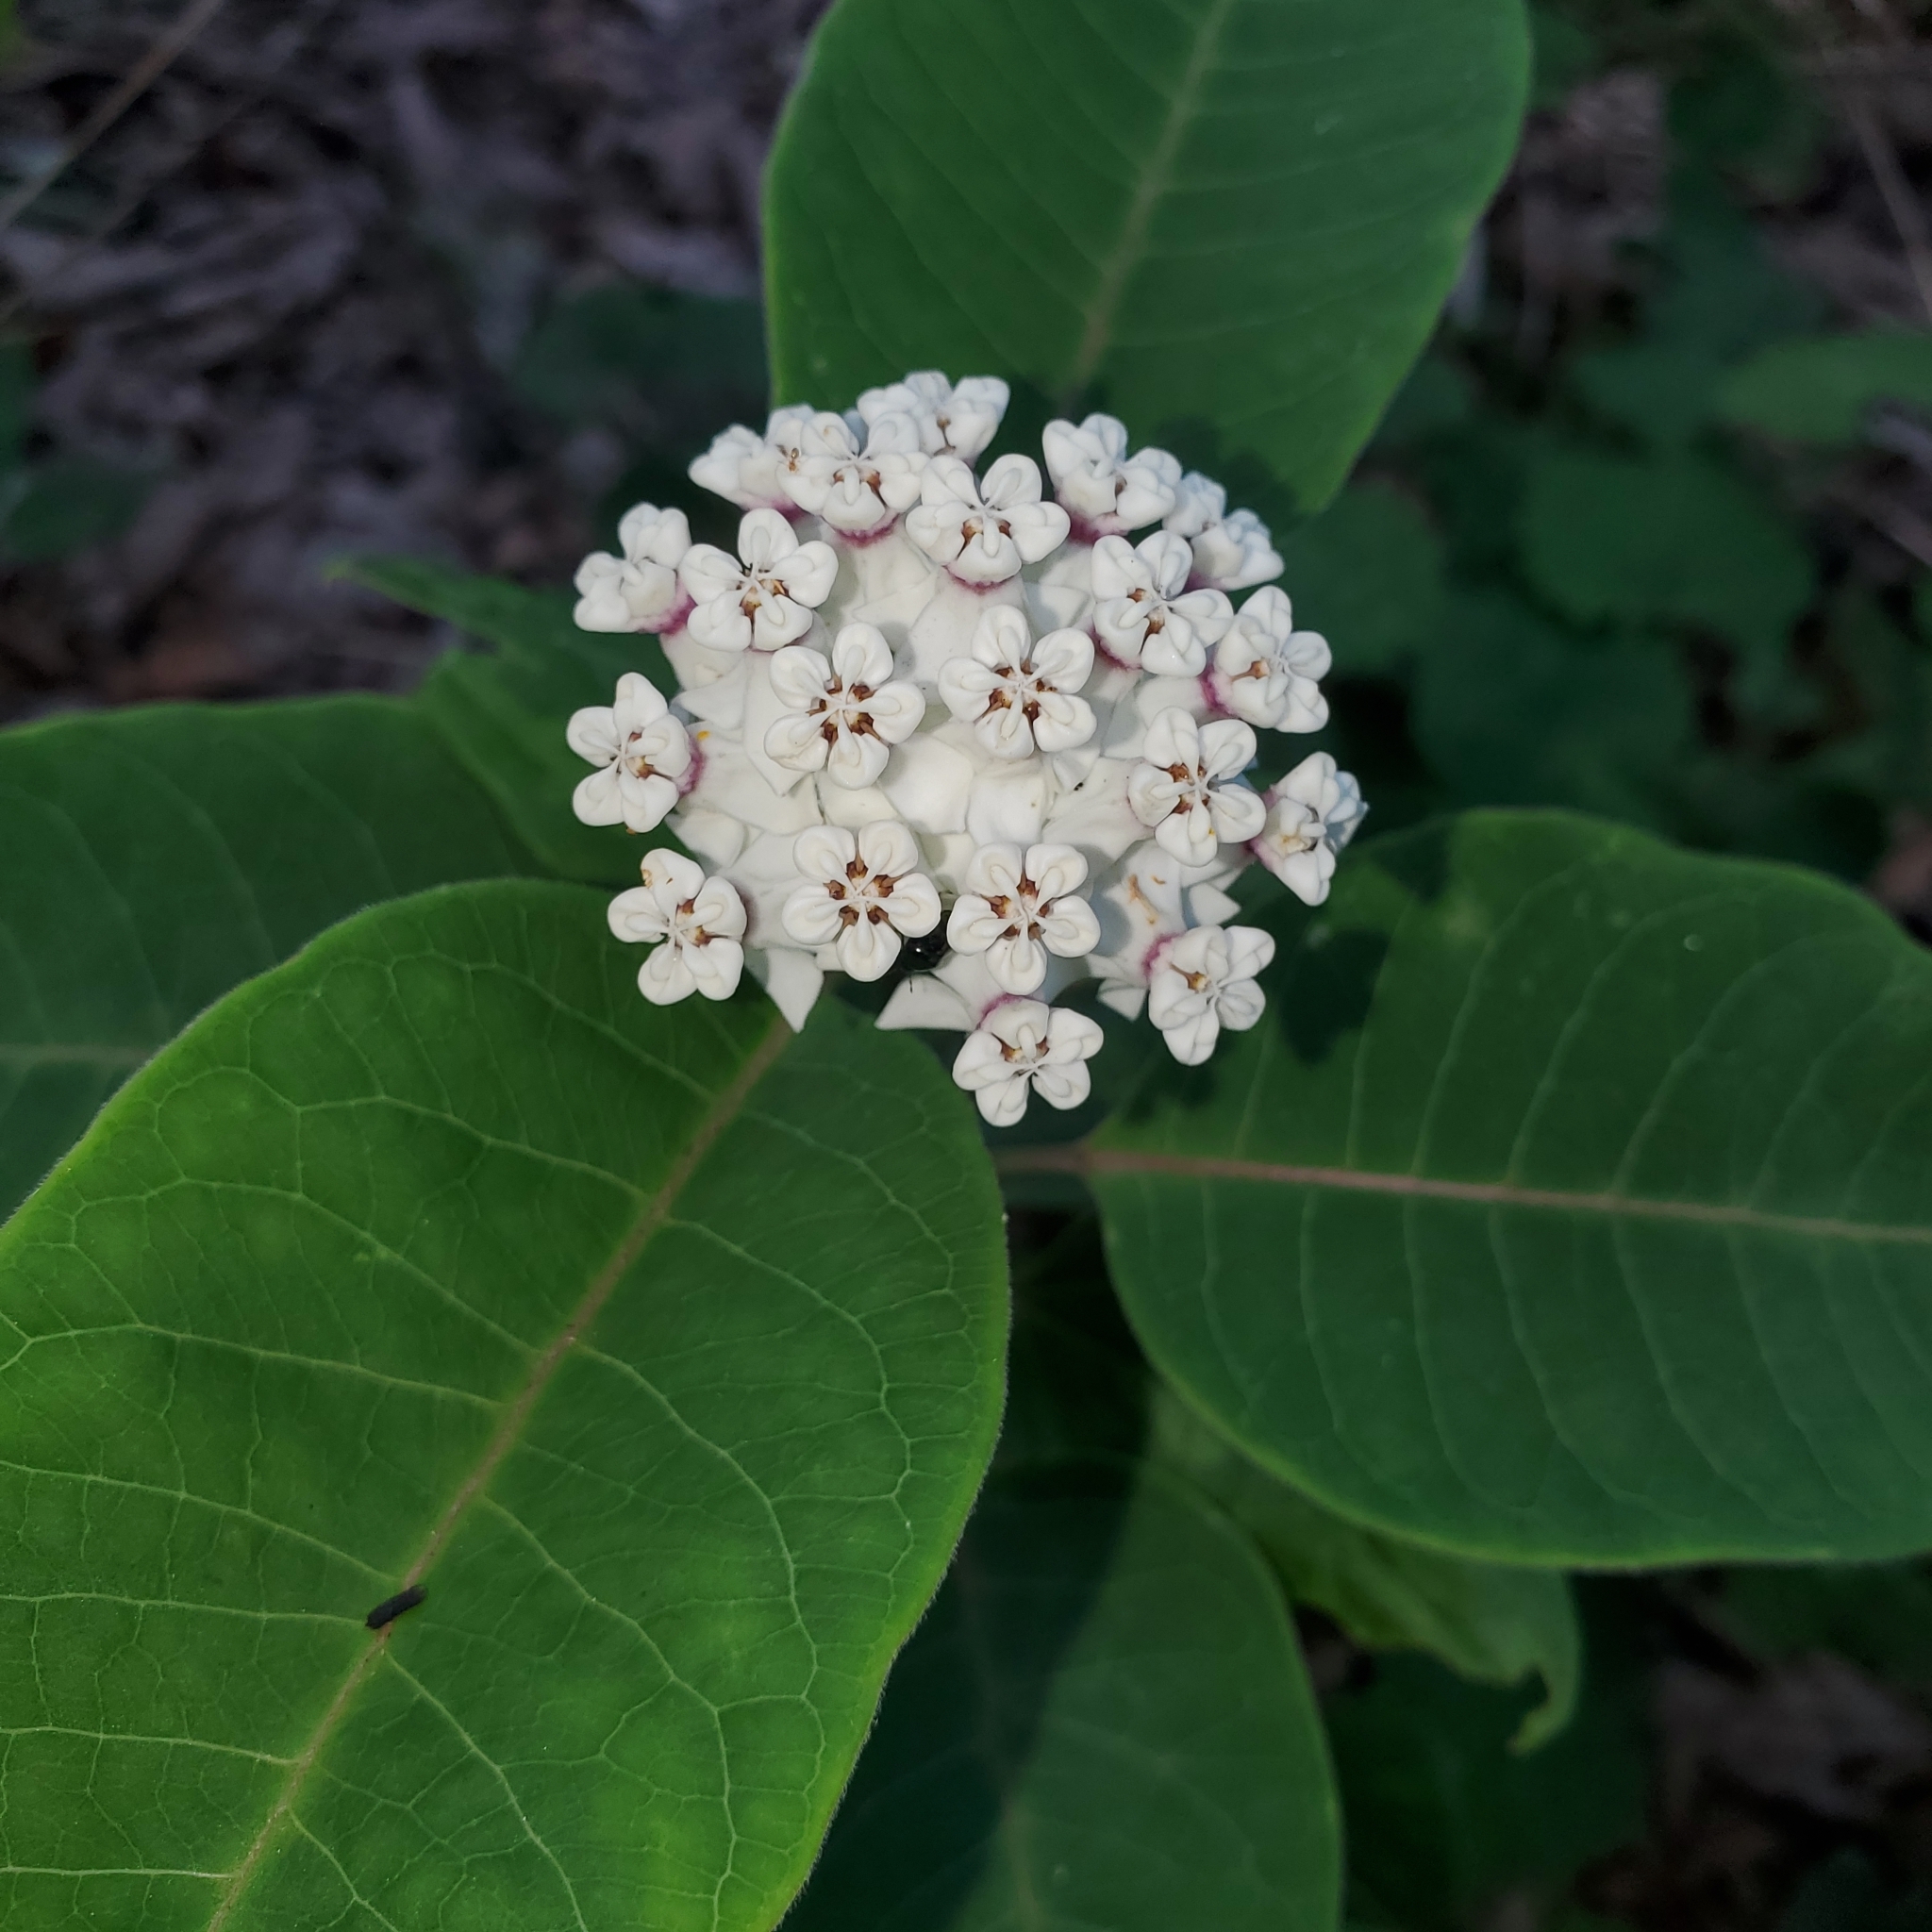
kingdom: Plantae
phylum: Tracheophyta
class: Magnoliopsida
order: Gentianales
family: Apocynaceae
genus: Asclepias
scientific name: Asclepias variegata
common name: Variegated milkweed
